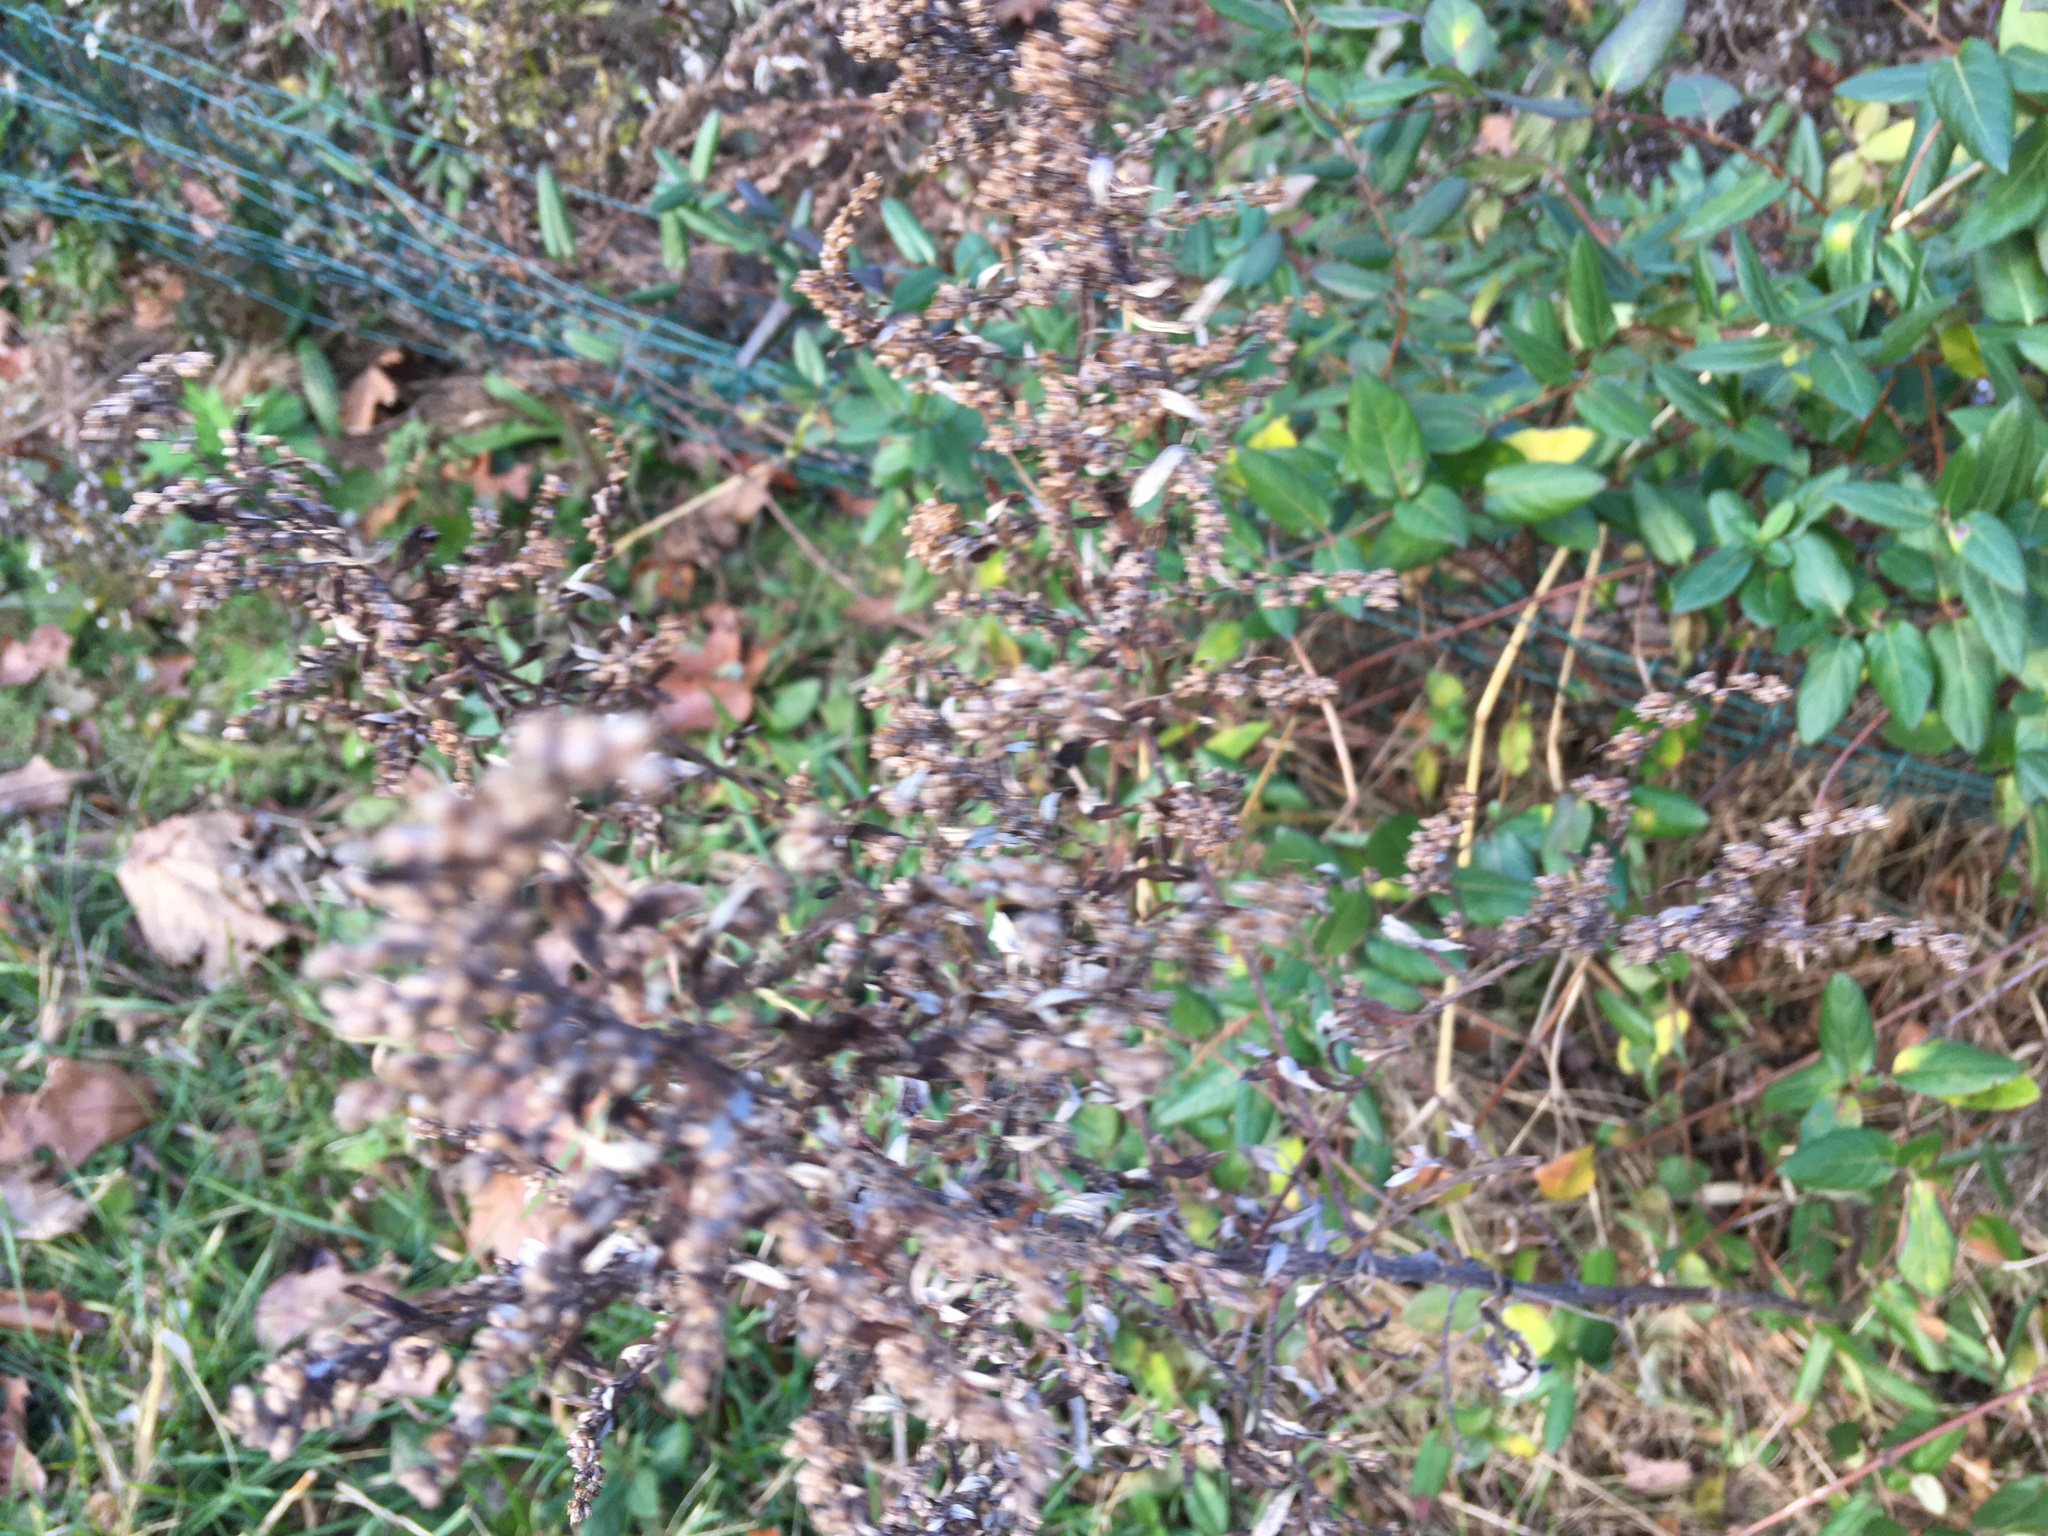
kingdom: Plantae
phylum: Tracheophyta
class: Magnoliopsida
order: Dipsacales
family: Caprifoliaceae
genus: Lonicera
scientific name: Lonicera japonica
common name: Japanese honeysuckle
